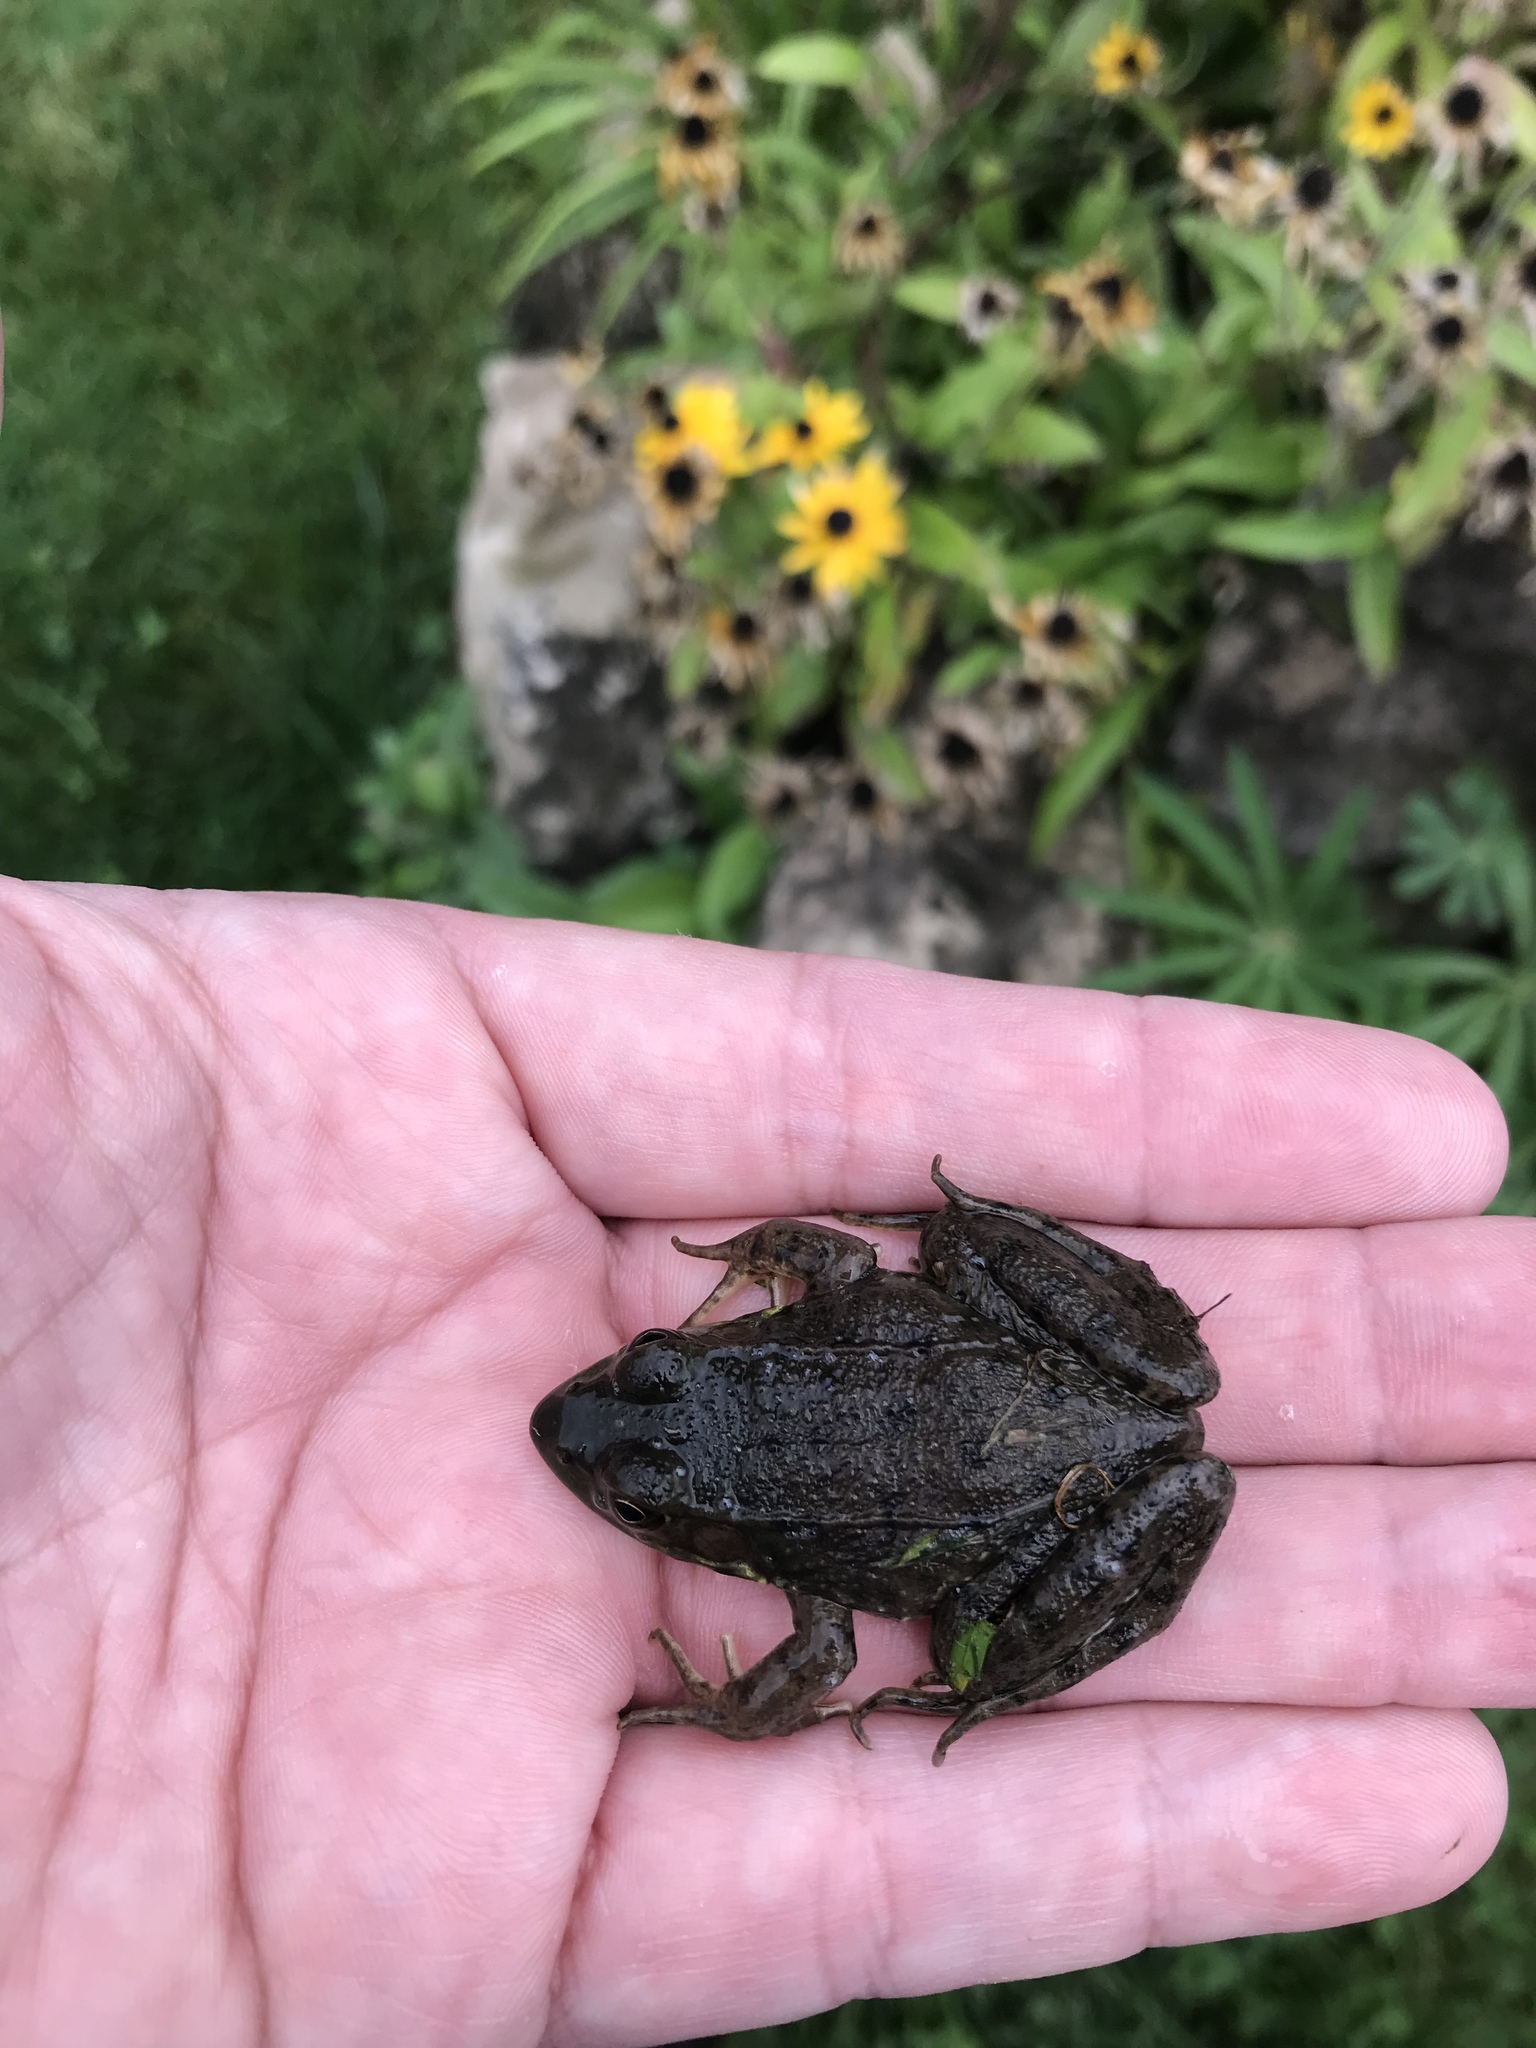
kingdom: Animalia
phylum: Chordata
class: Amphibia
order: Anura
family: Ranidae
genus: Lithobates
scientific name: Lithobates clamitans
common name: Green frog
